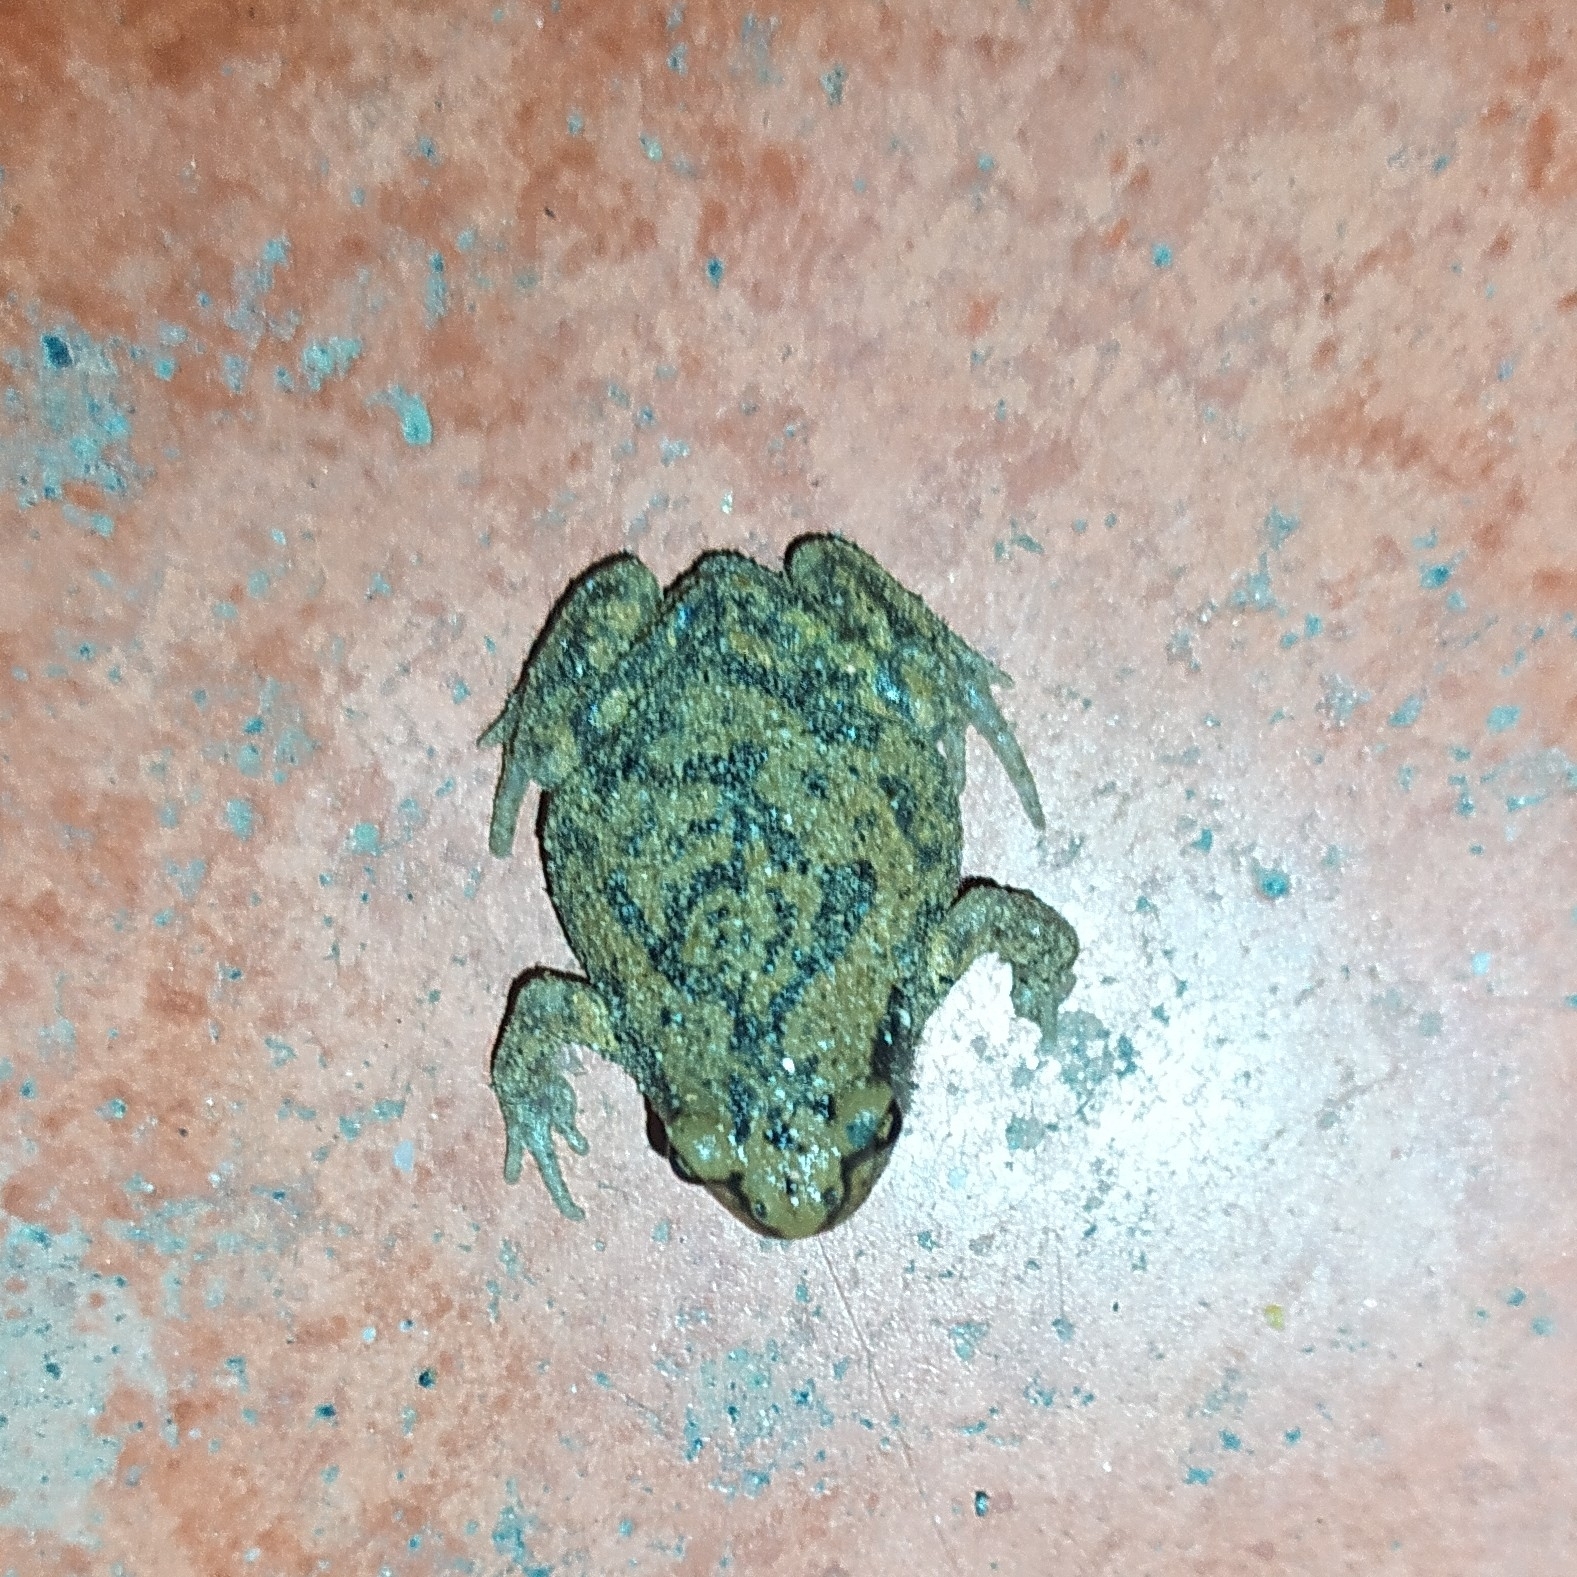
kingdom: Animalia
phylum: Chordata
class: Amphibia
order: Anura
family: Microhylidae
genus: Uperodon
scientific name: Uperodon systoma
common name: Balloon frog
